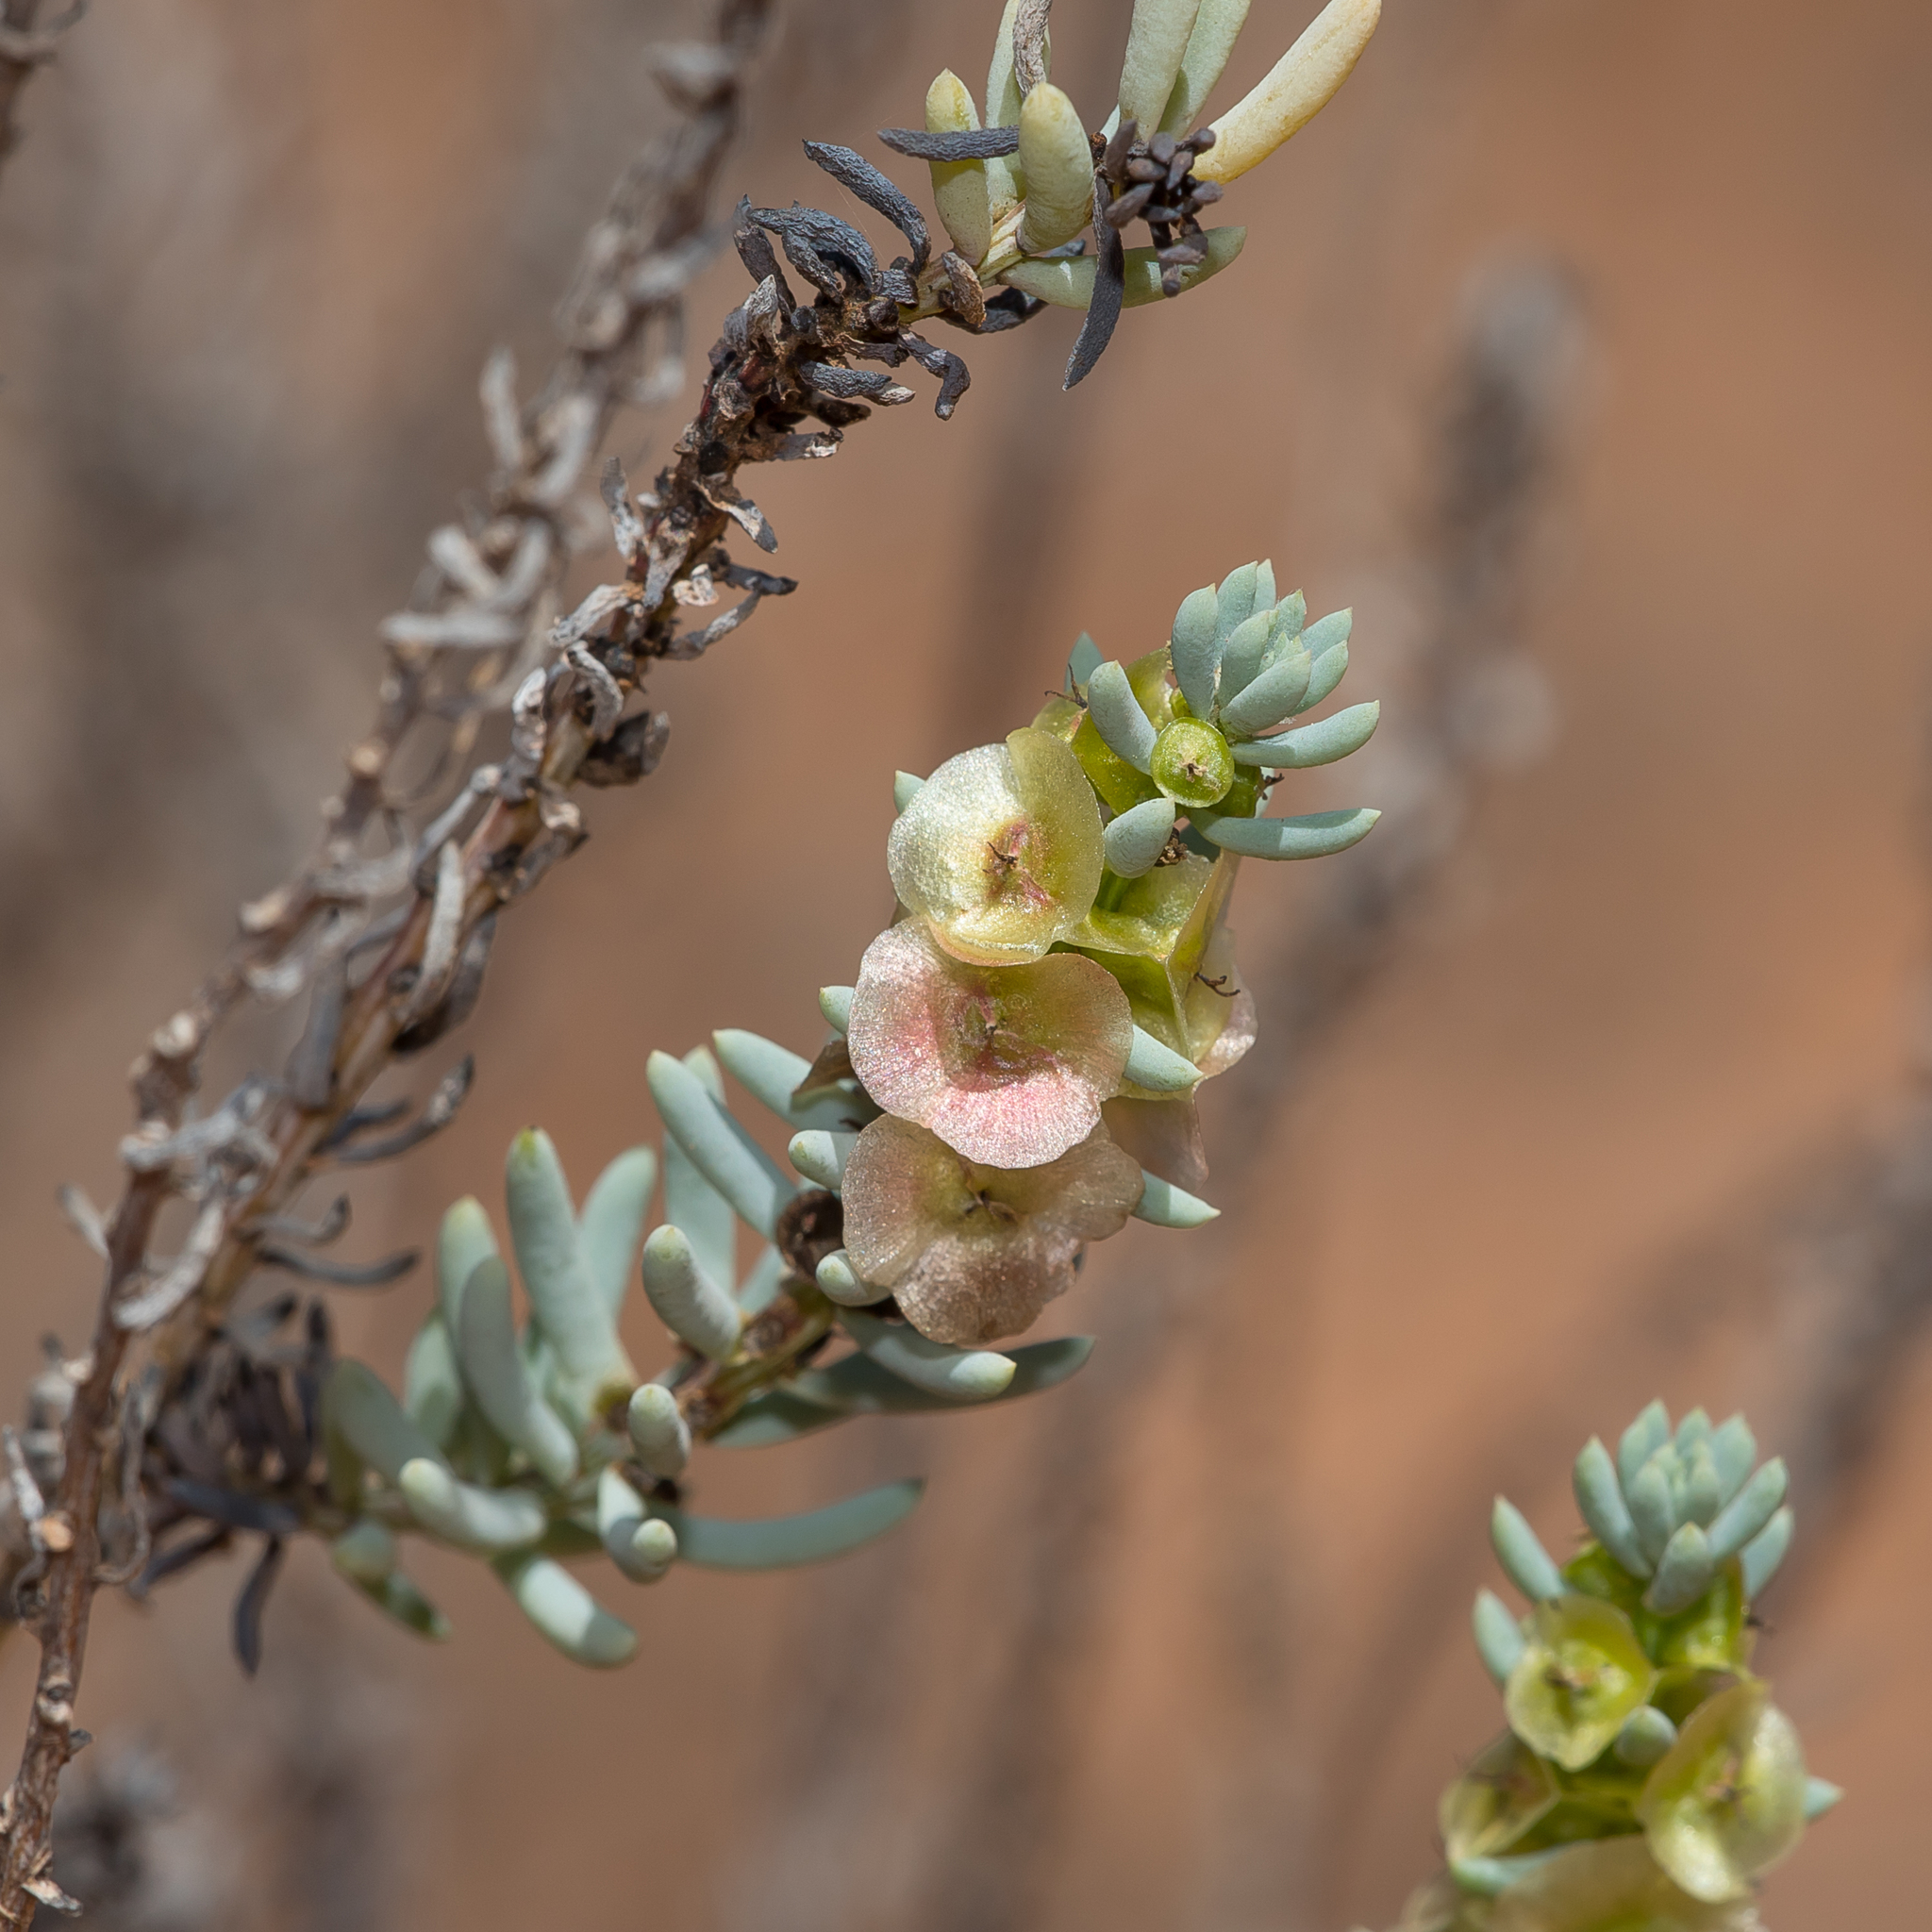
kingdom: Plantae
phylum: Tracheophyta
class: Magnoliopsida
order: Caryophyllales
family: Amaranthaceae
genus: Maireana
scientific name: Maireana triptera
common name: Three-wing bluebush
